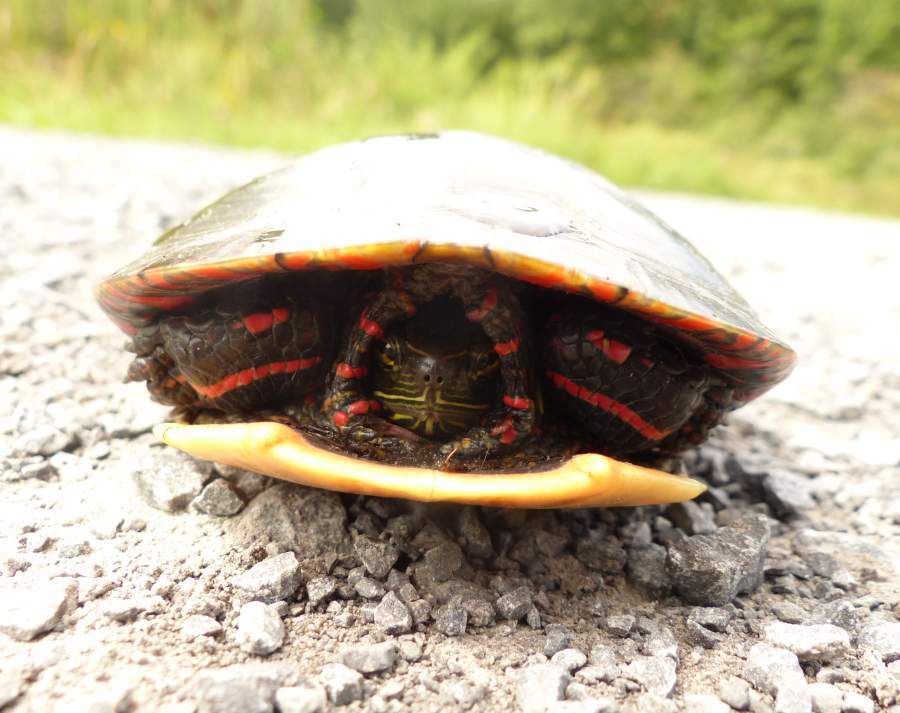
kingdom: Animalia
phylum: Chordata
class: Testudines
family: Emydidae
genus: Chrysemys
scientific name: Chrysemys picta
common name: Painted turtle
